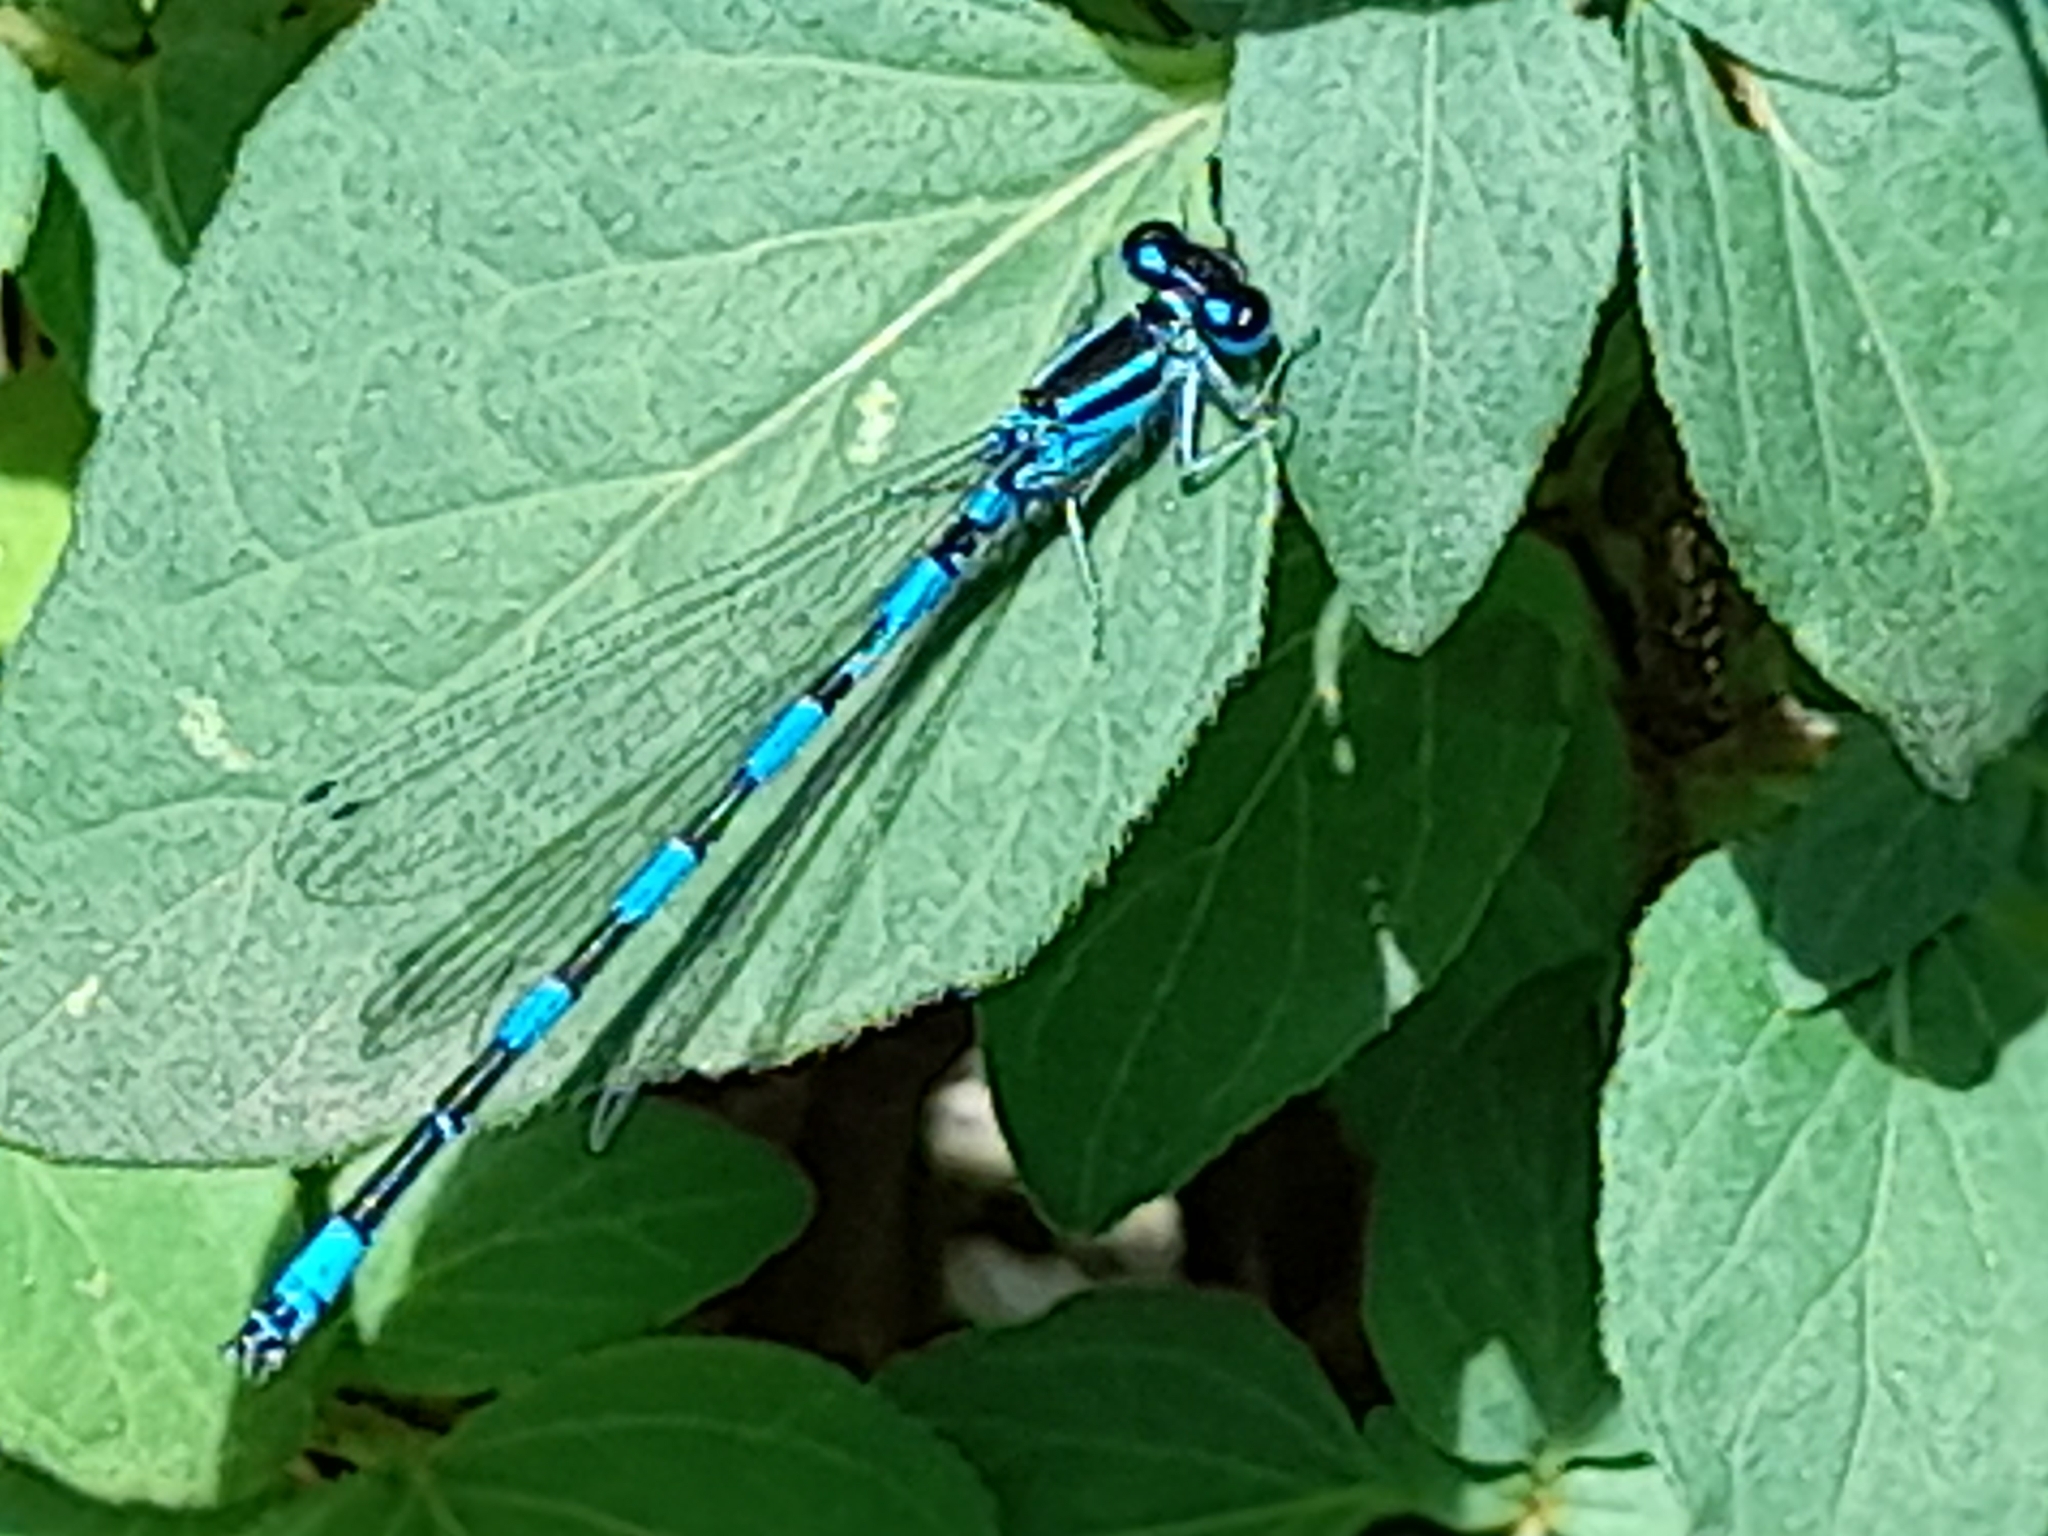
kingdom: Animalia
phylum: Arthropoda
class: Insecta
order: Odonata
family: Coenagrionidae
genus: Coenagrion
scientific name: Coenagrion mercuriale
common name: Southern damselfly
